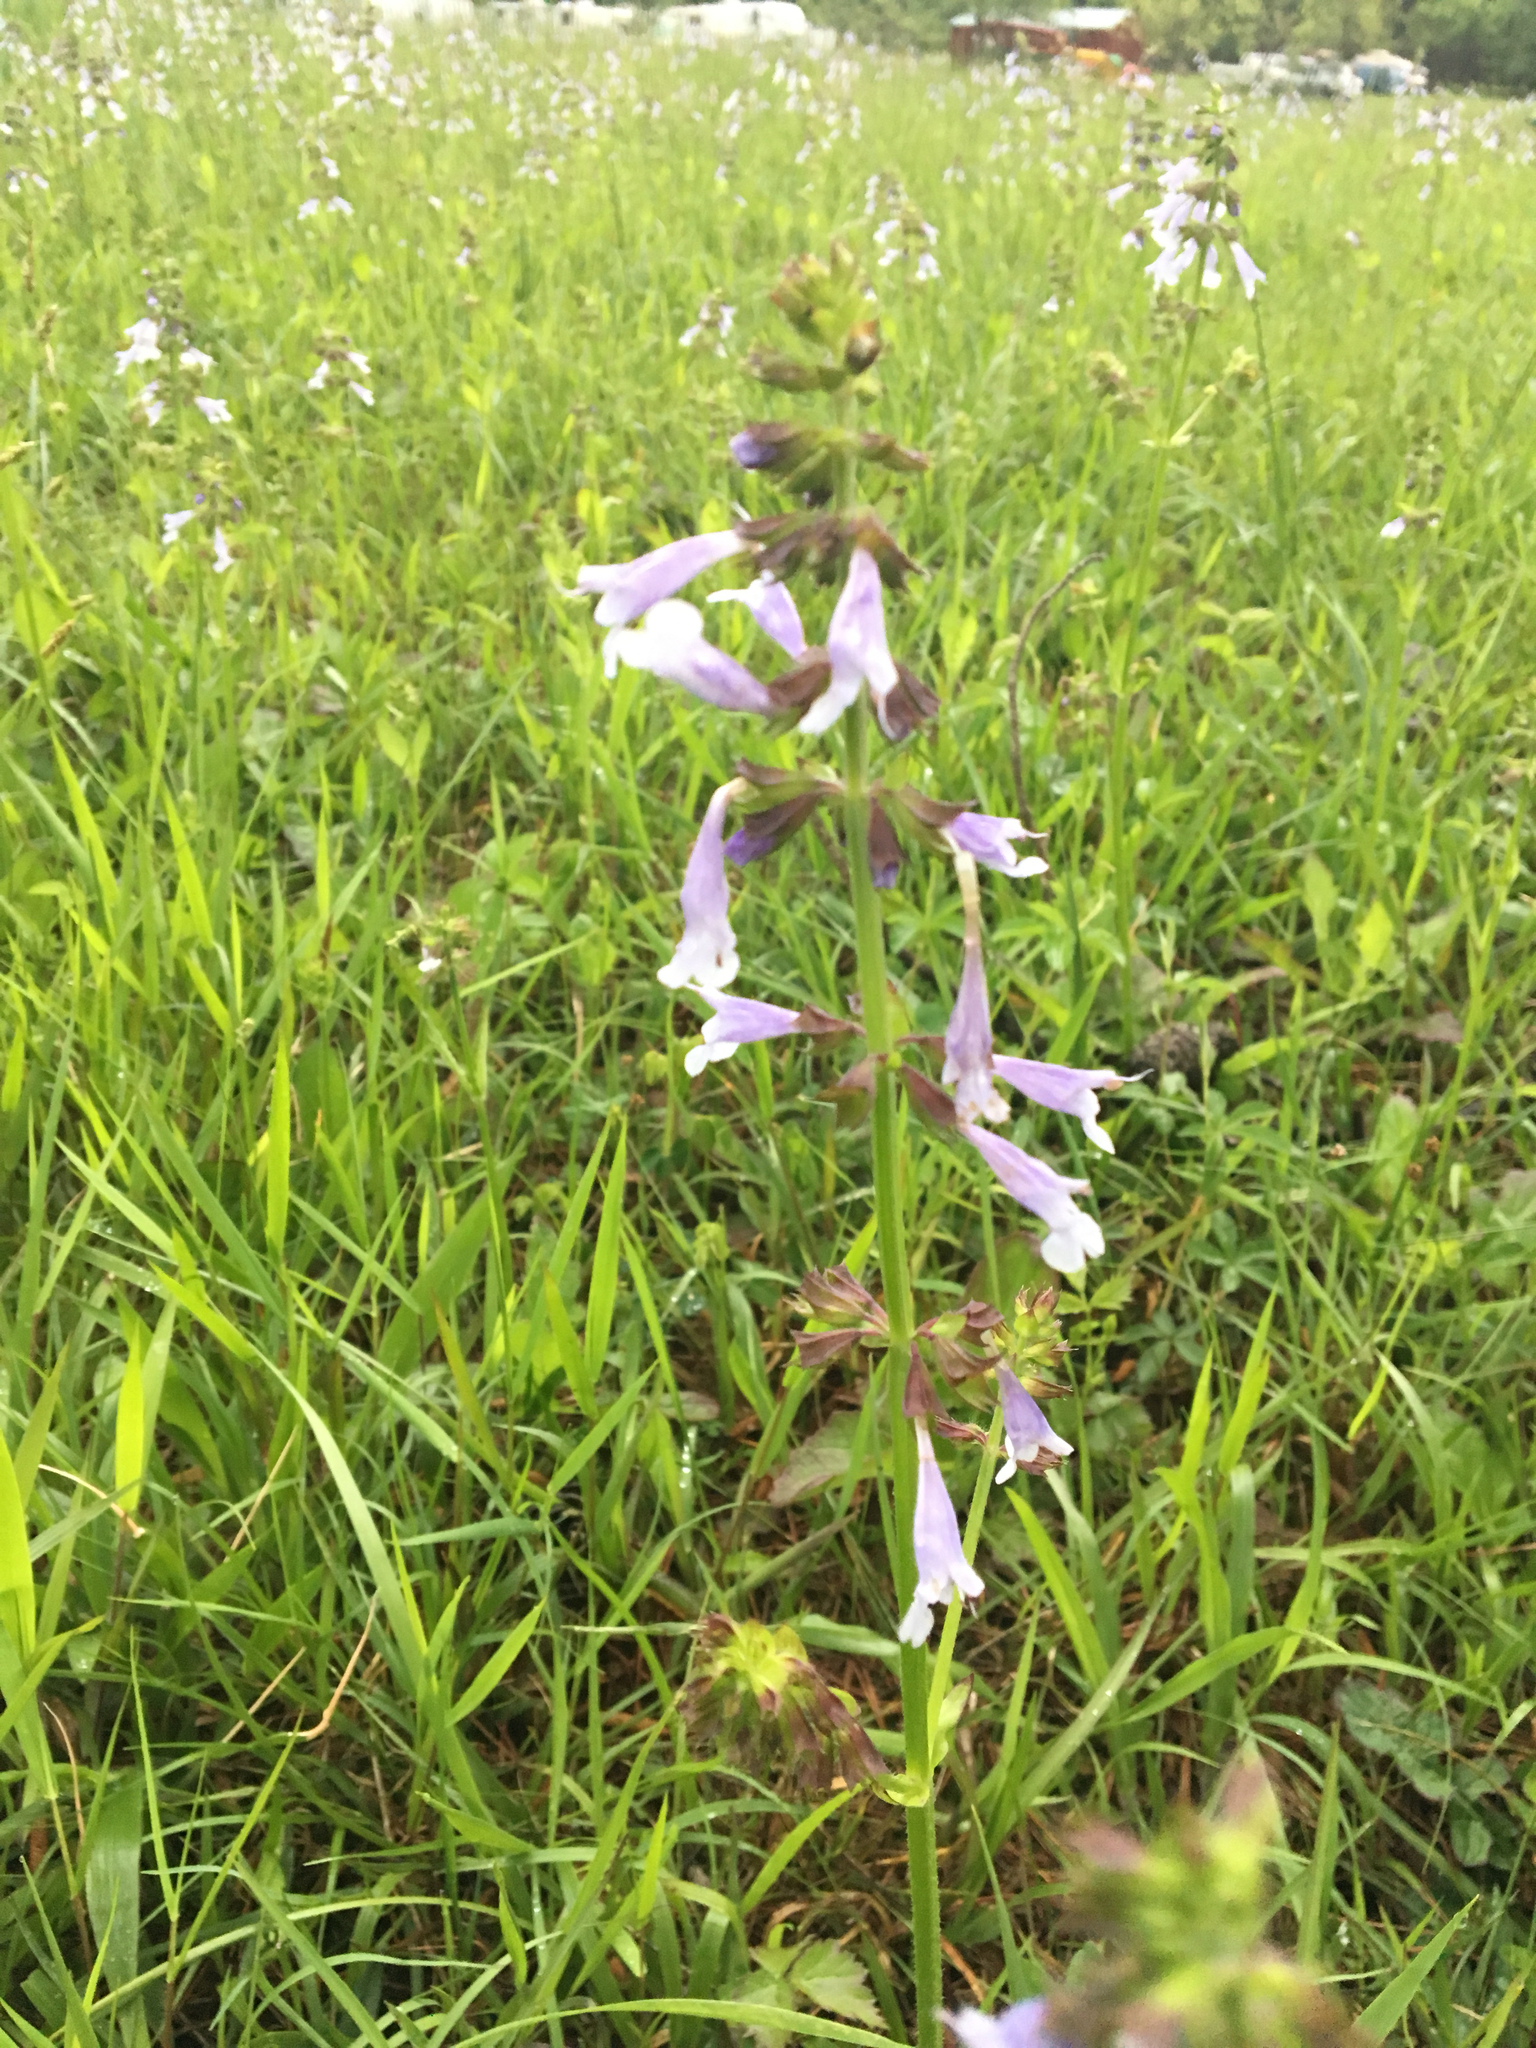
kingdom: Plantae
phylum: Tracheophyta
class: Magnoliopsida
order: Lamiales
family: Lamiaceae
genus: Salvia
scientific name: Salvia lyrata
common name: Cancerweed
